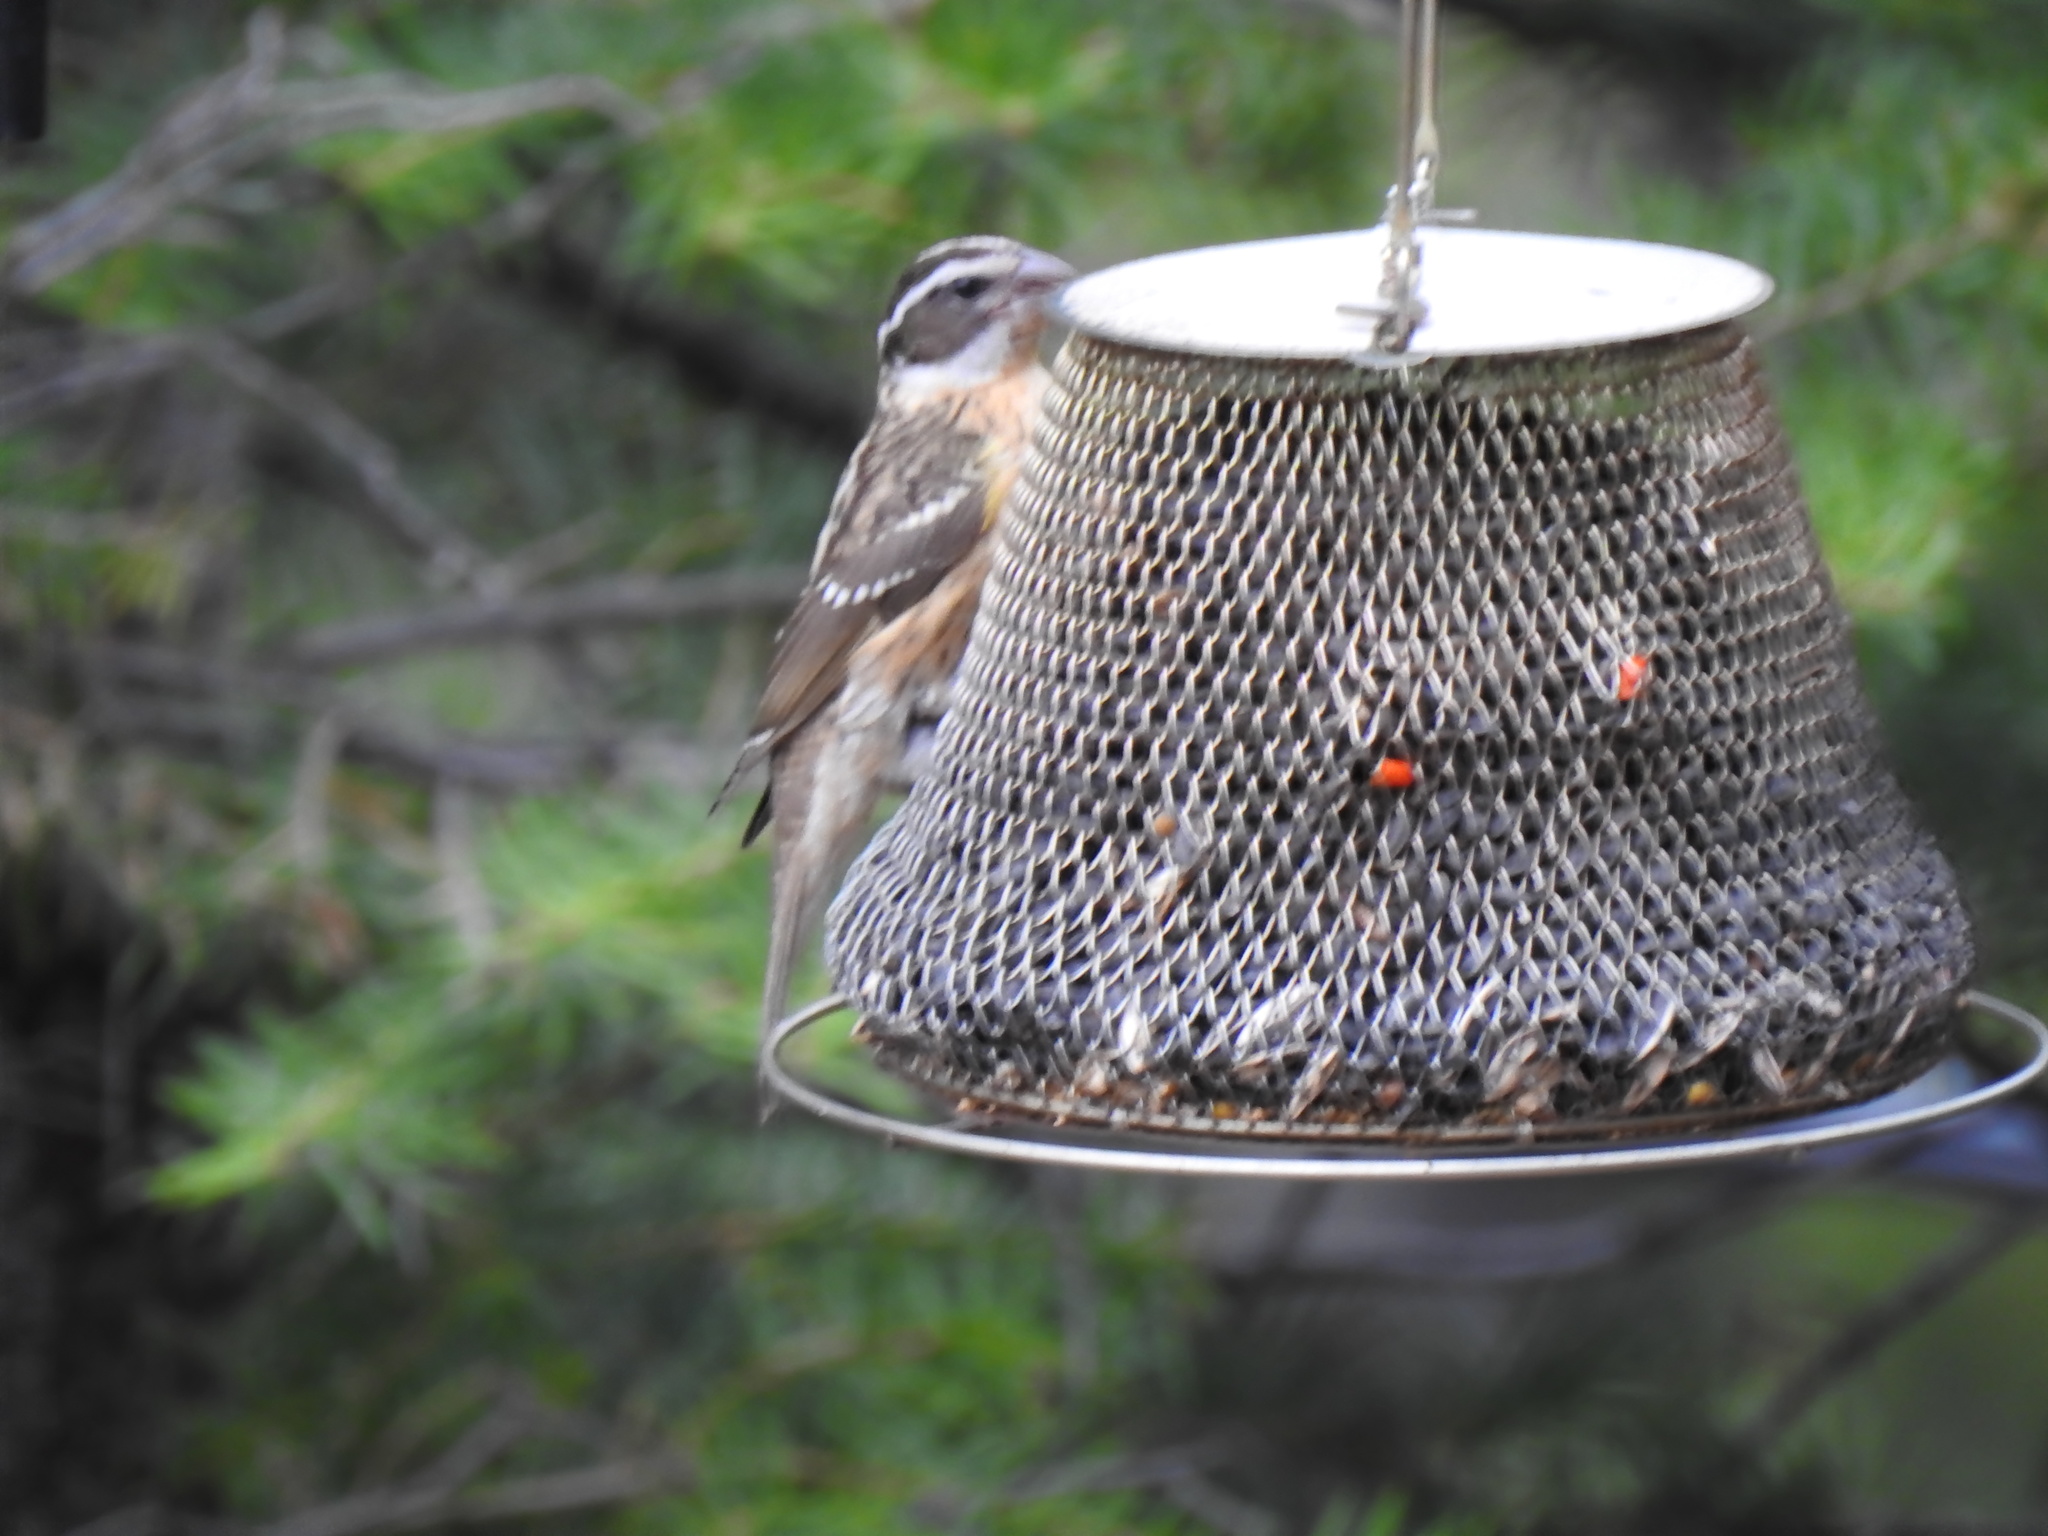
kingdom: Animalia
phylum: Chordata
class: Aves
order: Passeriformes
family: Cardinalidae
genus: Pheucticus
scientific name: Pheucticus melanocephalus
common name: Black-headed grosbeak
